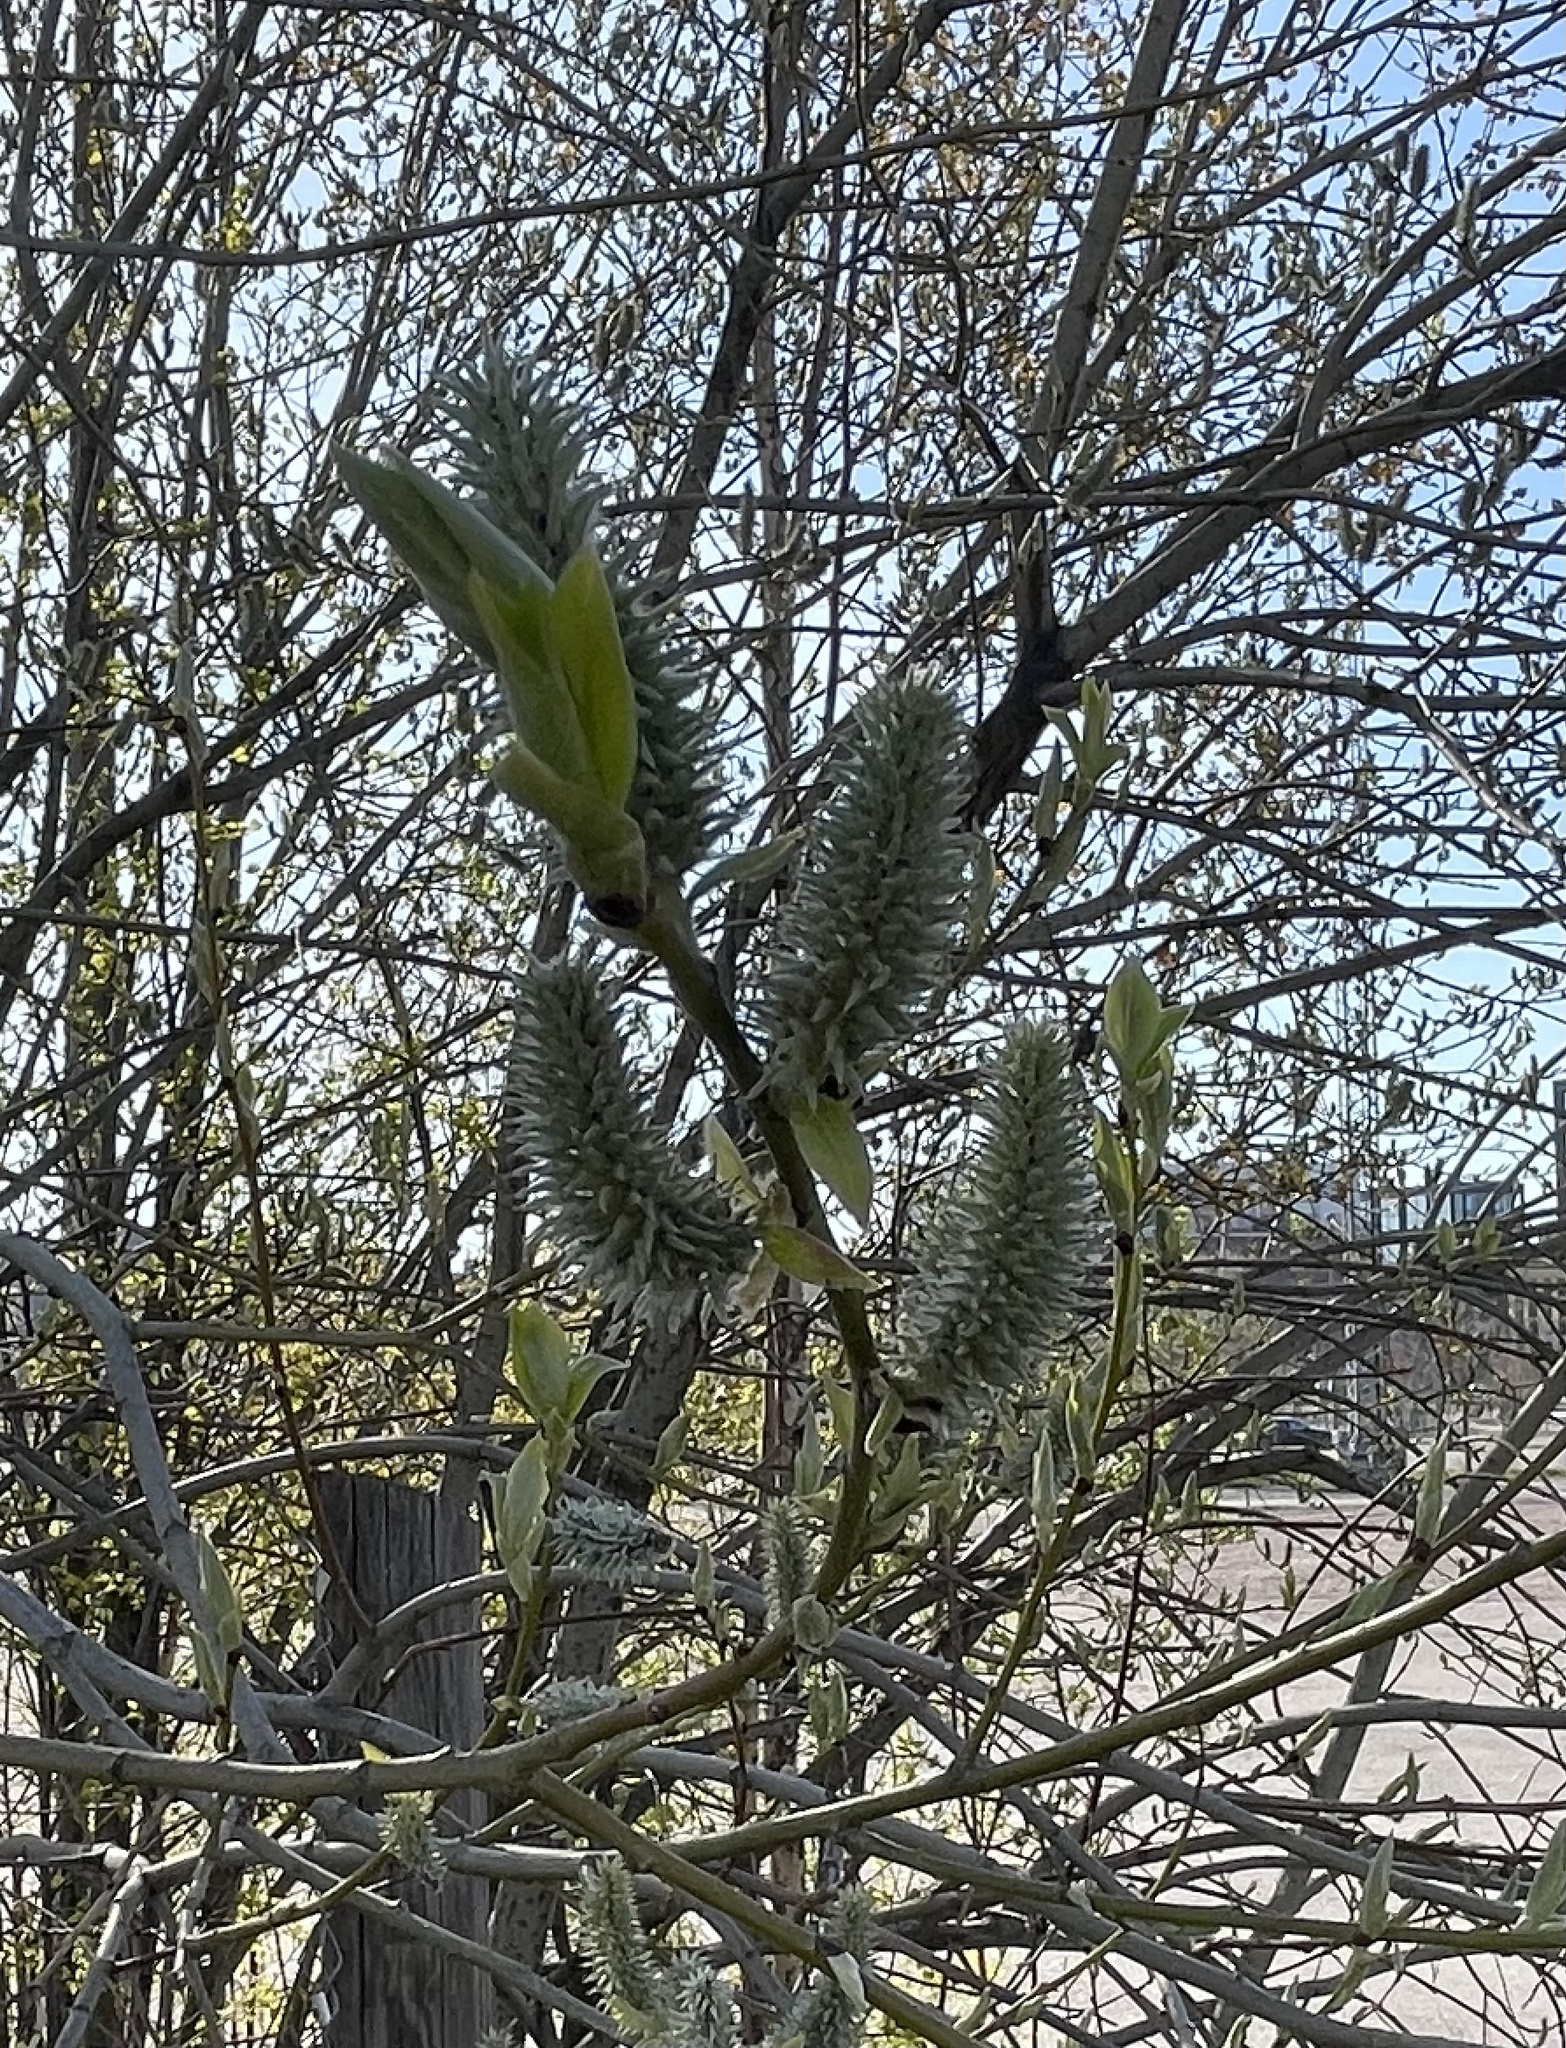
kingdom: Plantae
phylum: Tracheophyta
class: Magnoliopsida
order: Malpighiales
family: Salicaceae
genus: Salix
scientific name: Salix caprea
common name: Goat willow
